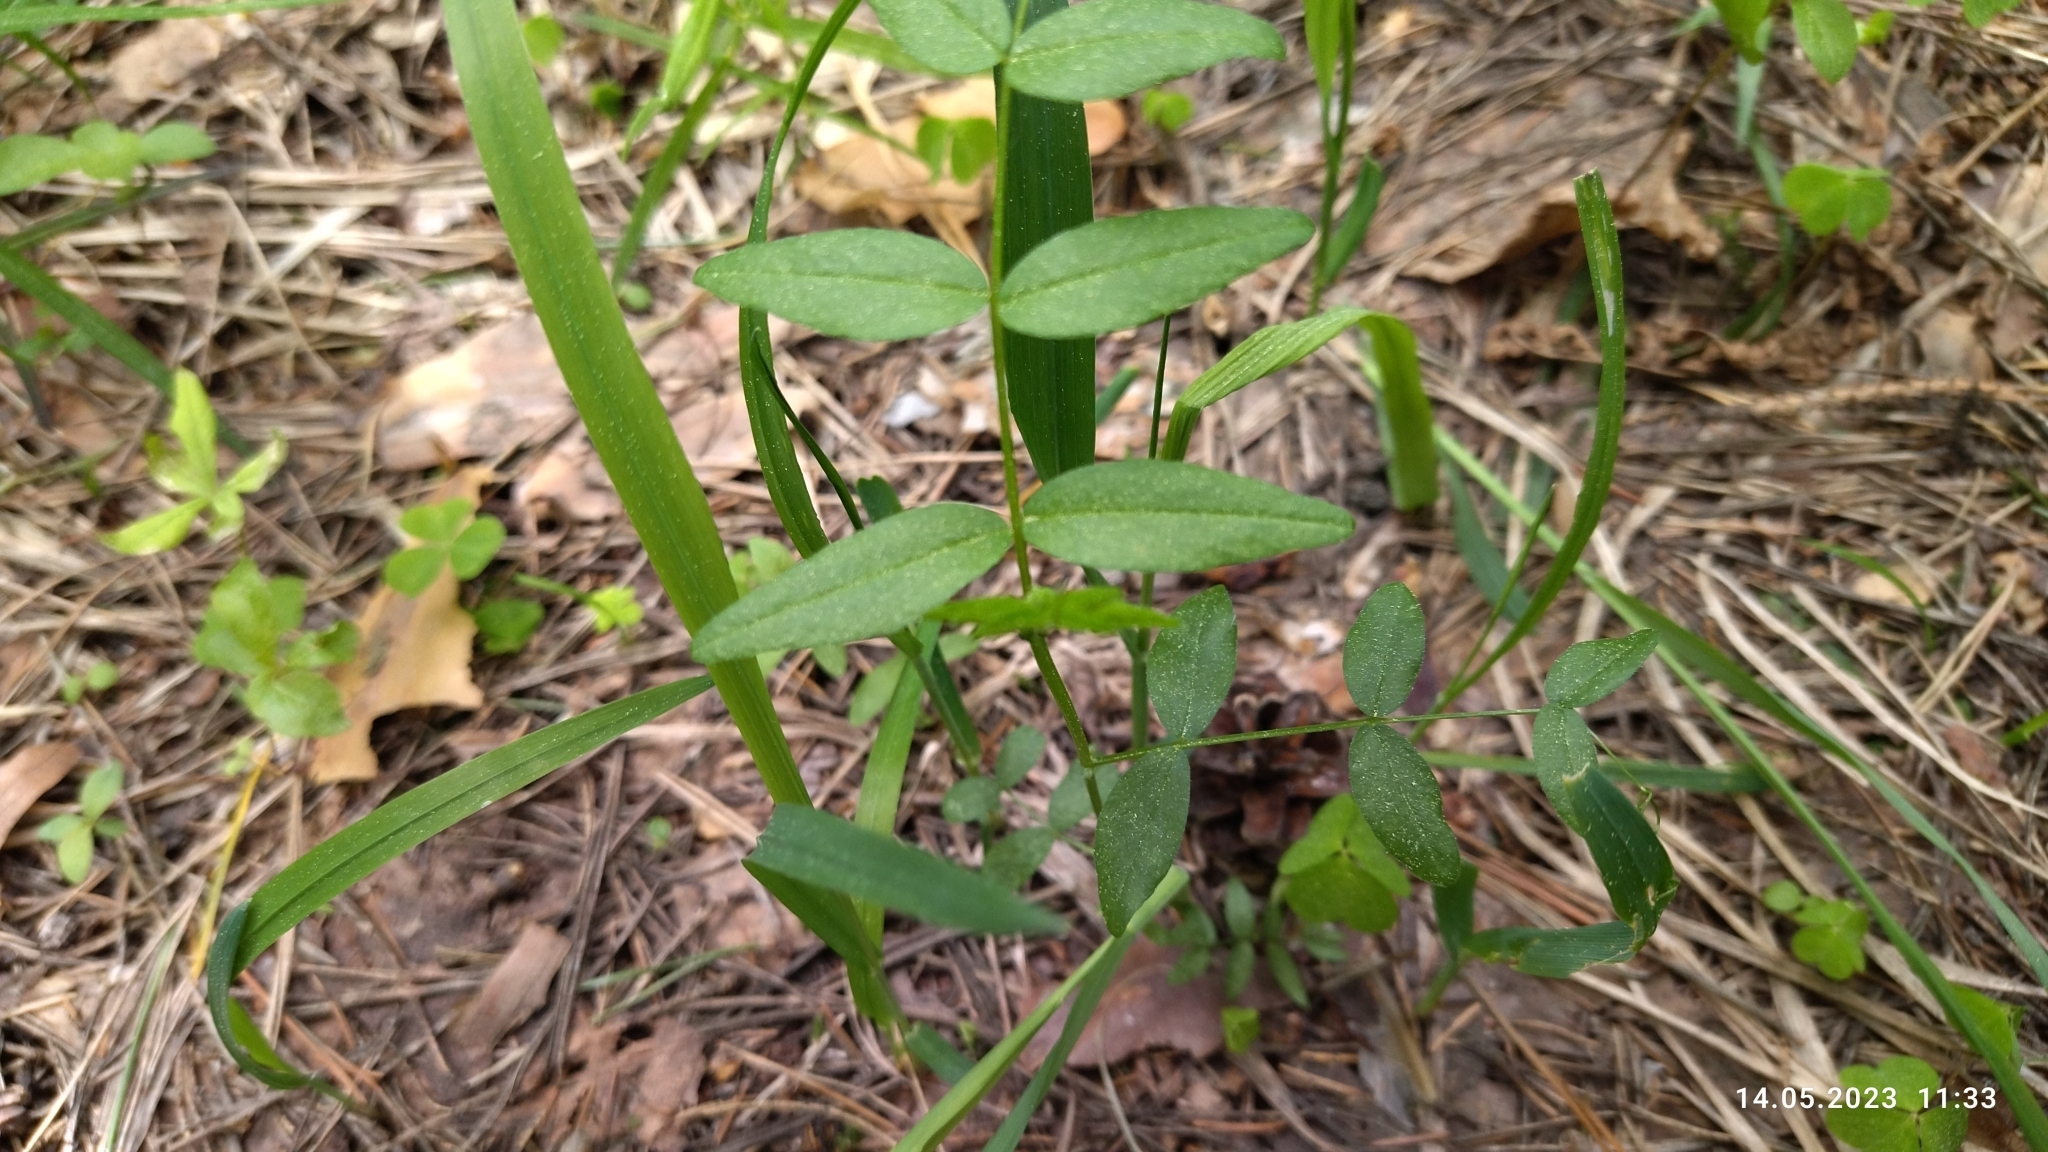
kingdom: Plantae
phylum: Tracheophyta
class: Magnoliopsida
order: Fabales
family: Fabaceae
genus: Vicia
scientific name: Vicia sepium
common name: Bush vetch
